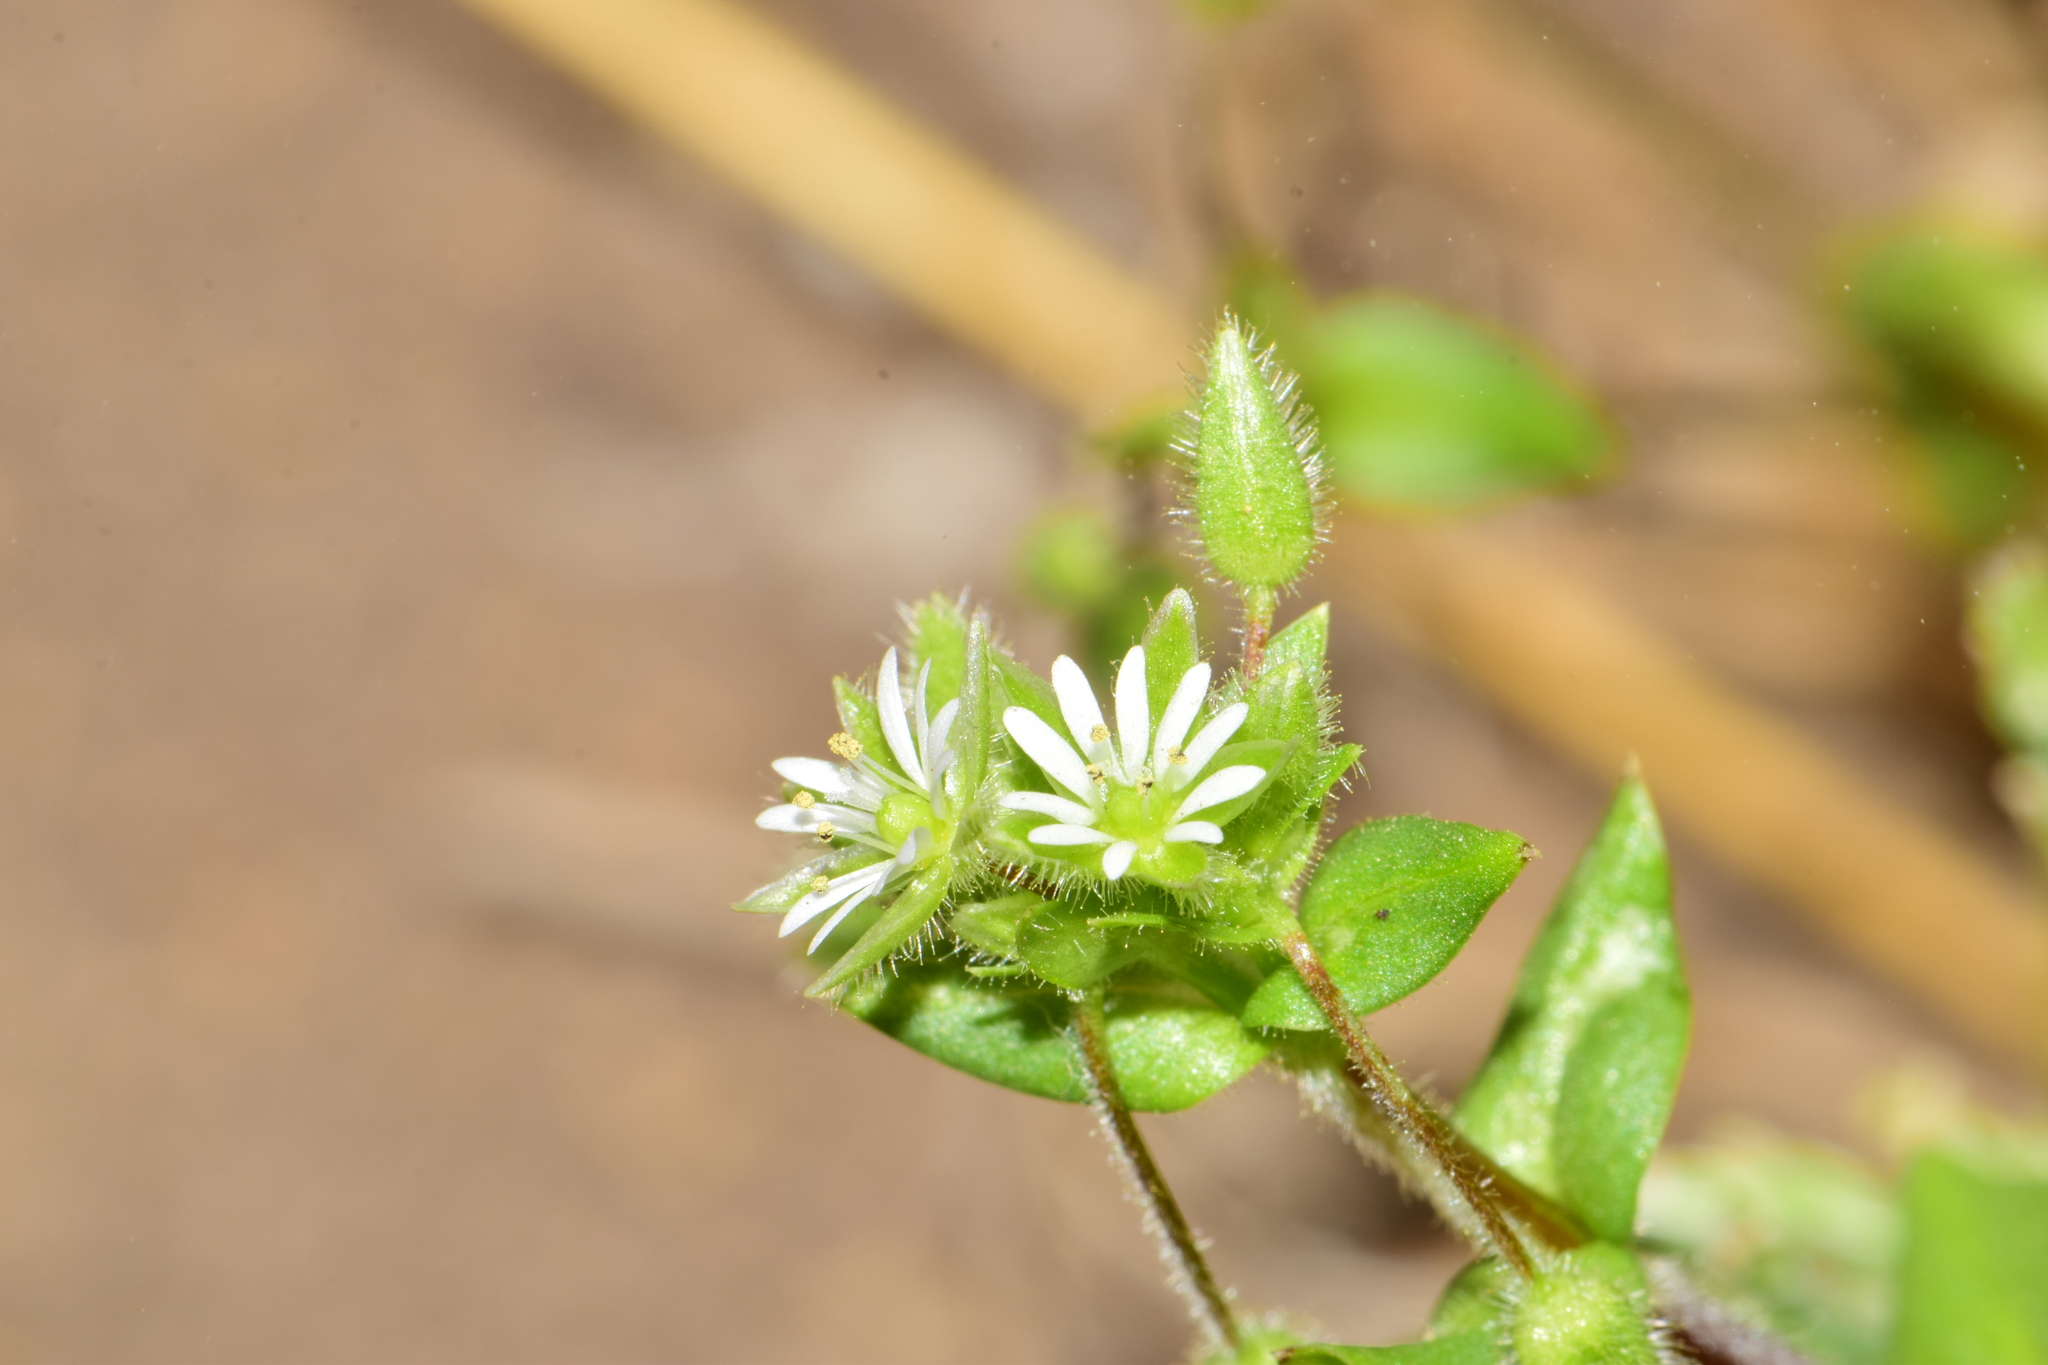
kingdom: Plantae
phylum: Tracheophyta
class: Magnoliopsida
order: Caryophyllales
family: Caryophyllaceae
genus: Stellaria
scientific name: Stellaria media
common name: Common chickweed
